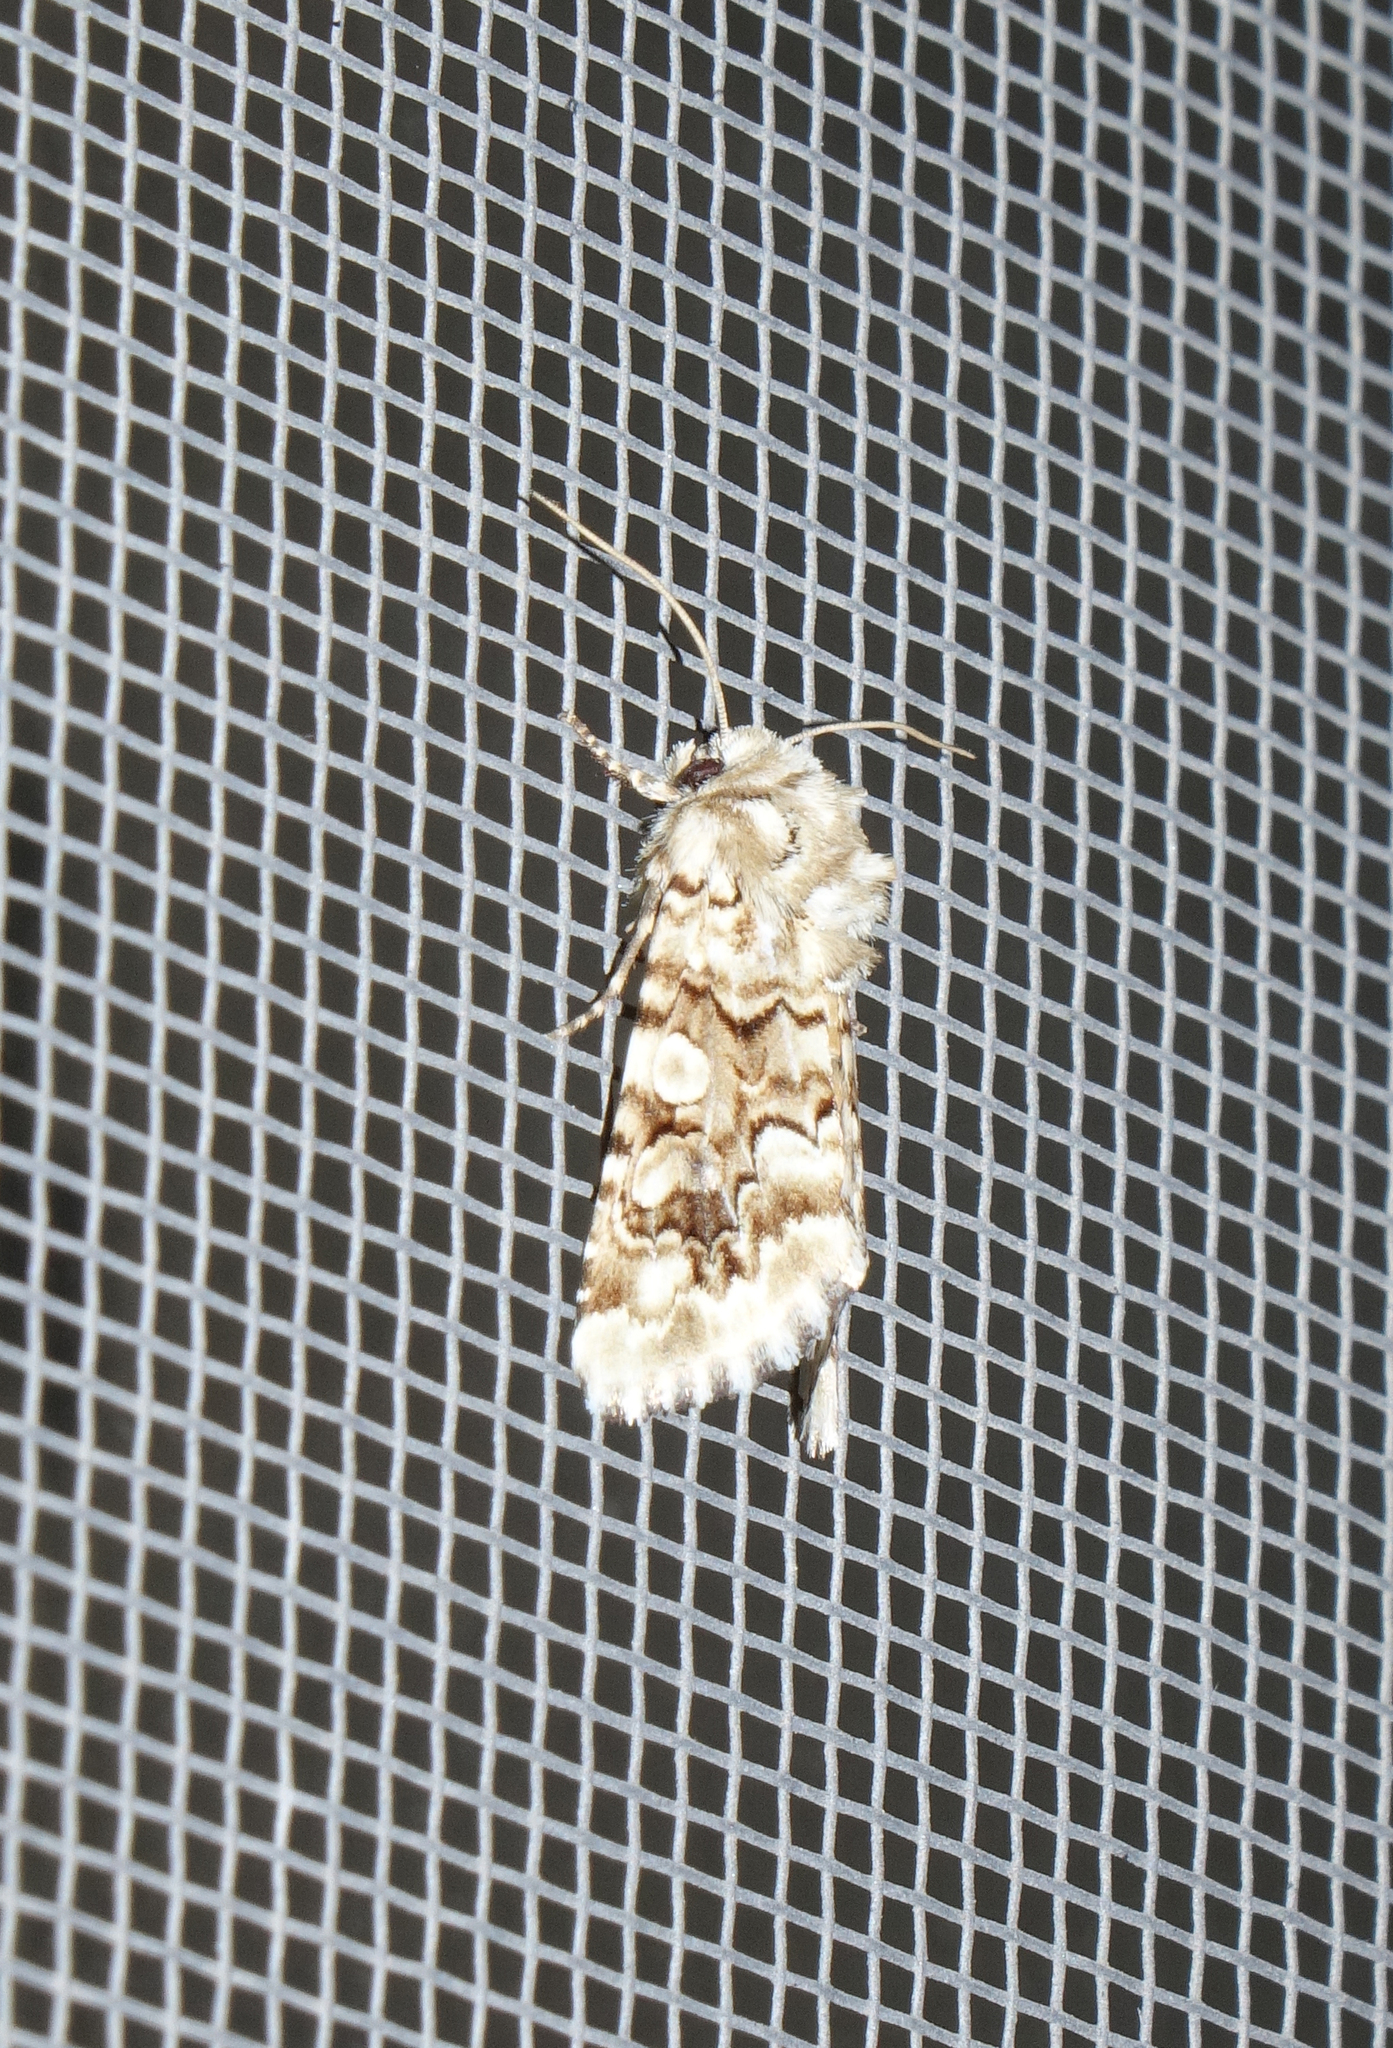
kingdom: Animalia
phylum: Arthropoda
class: Insecta
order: Lepidoptera
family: Noctuidae
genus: Hadena
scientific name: Hadena irregularis
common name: Vipers bugloss
